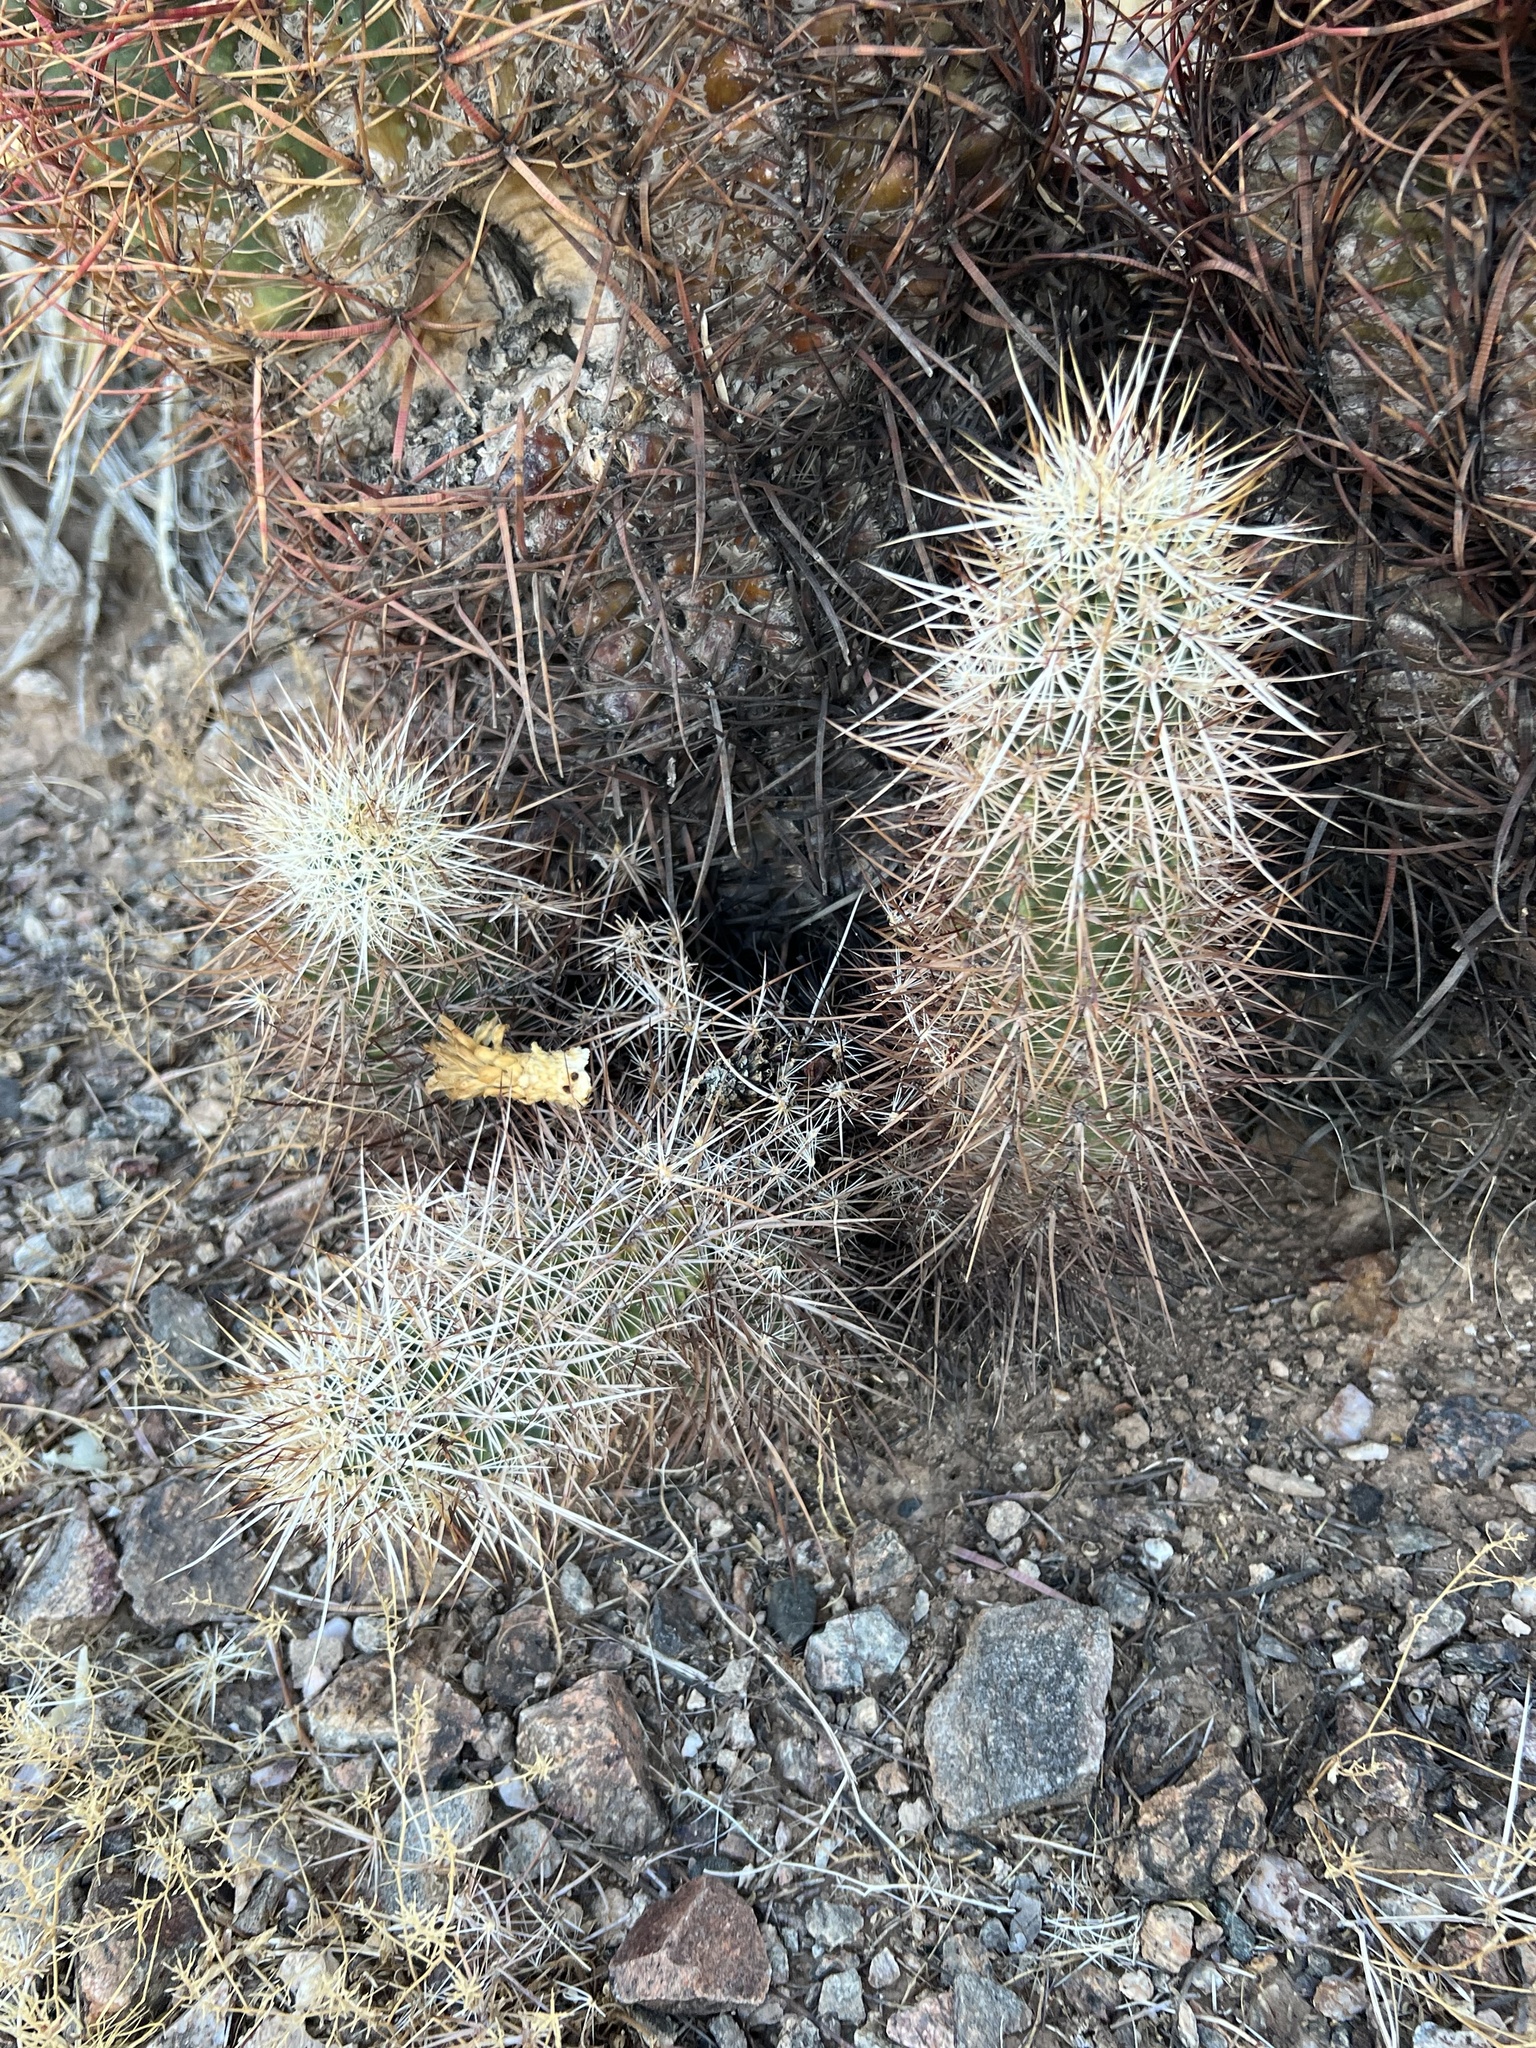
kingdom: Plantae
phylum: Tracheophyta
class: Magnoliopsida
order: Caryophyllales
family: Cactaceae
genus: Echinocereus
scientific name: Echinocereus engelmannii
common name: Engelmann's hedgehog cactus
